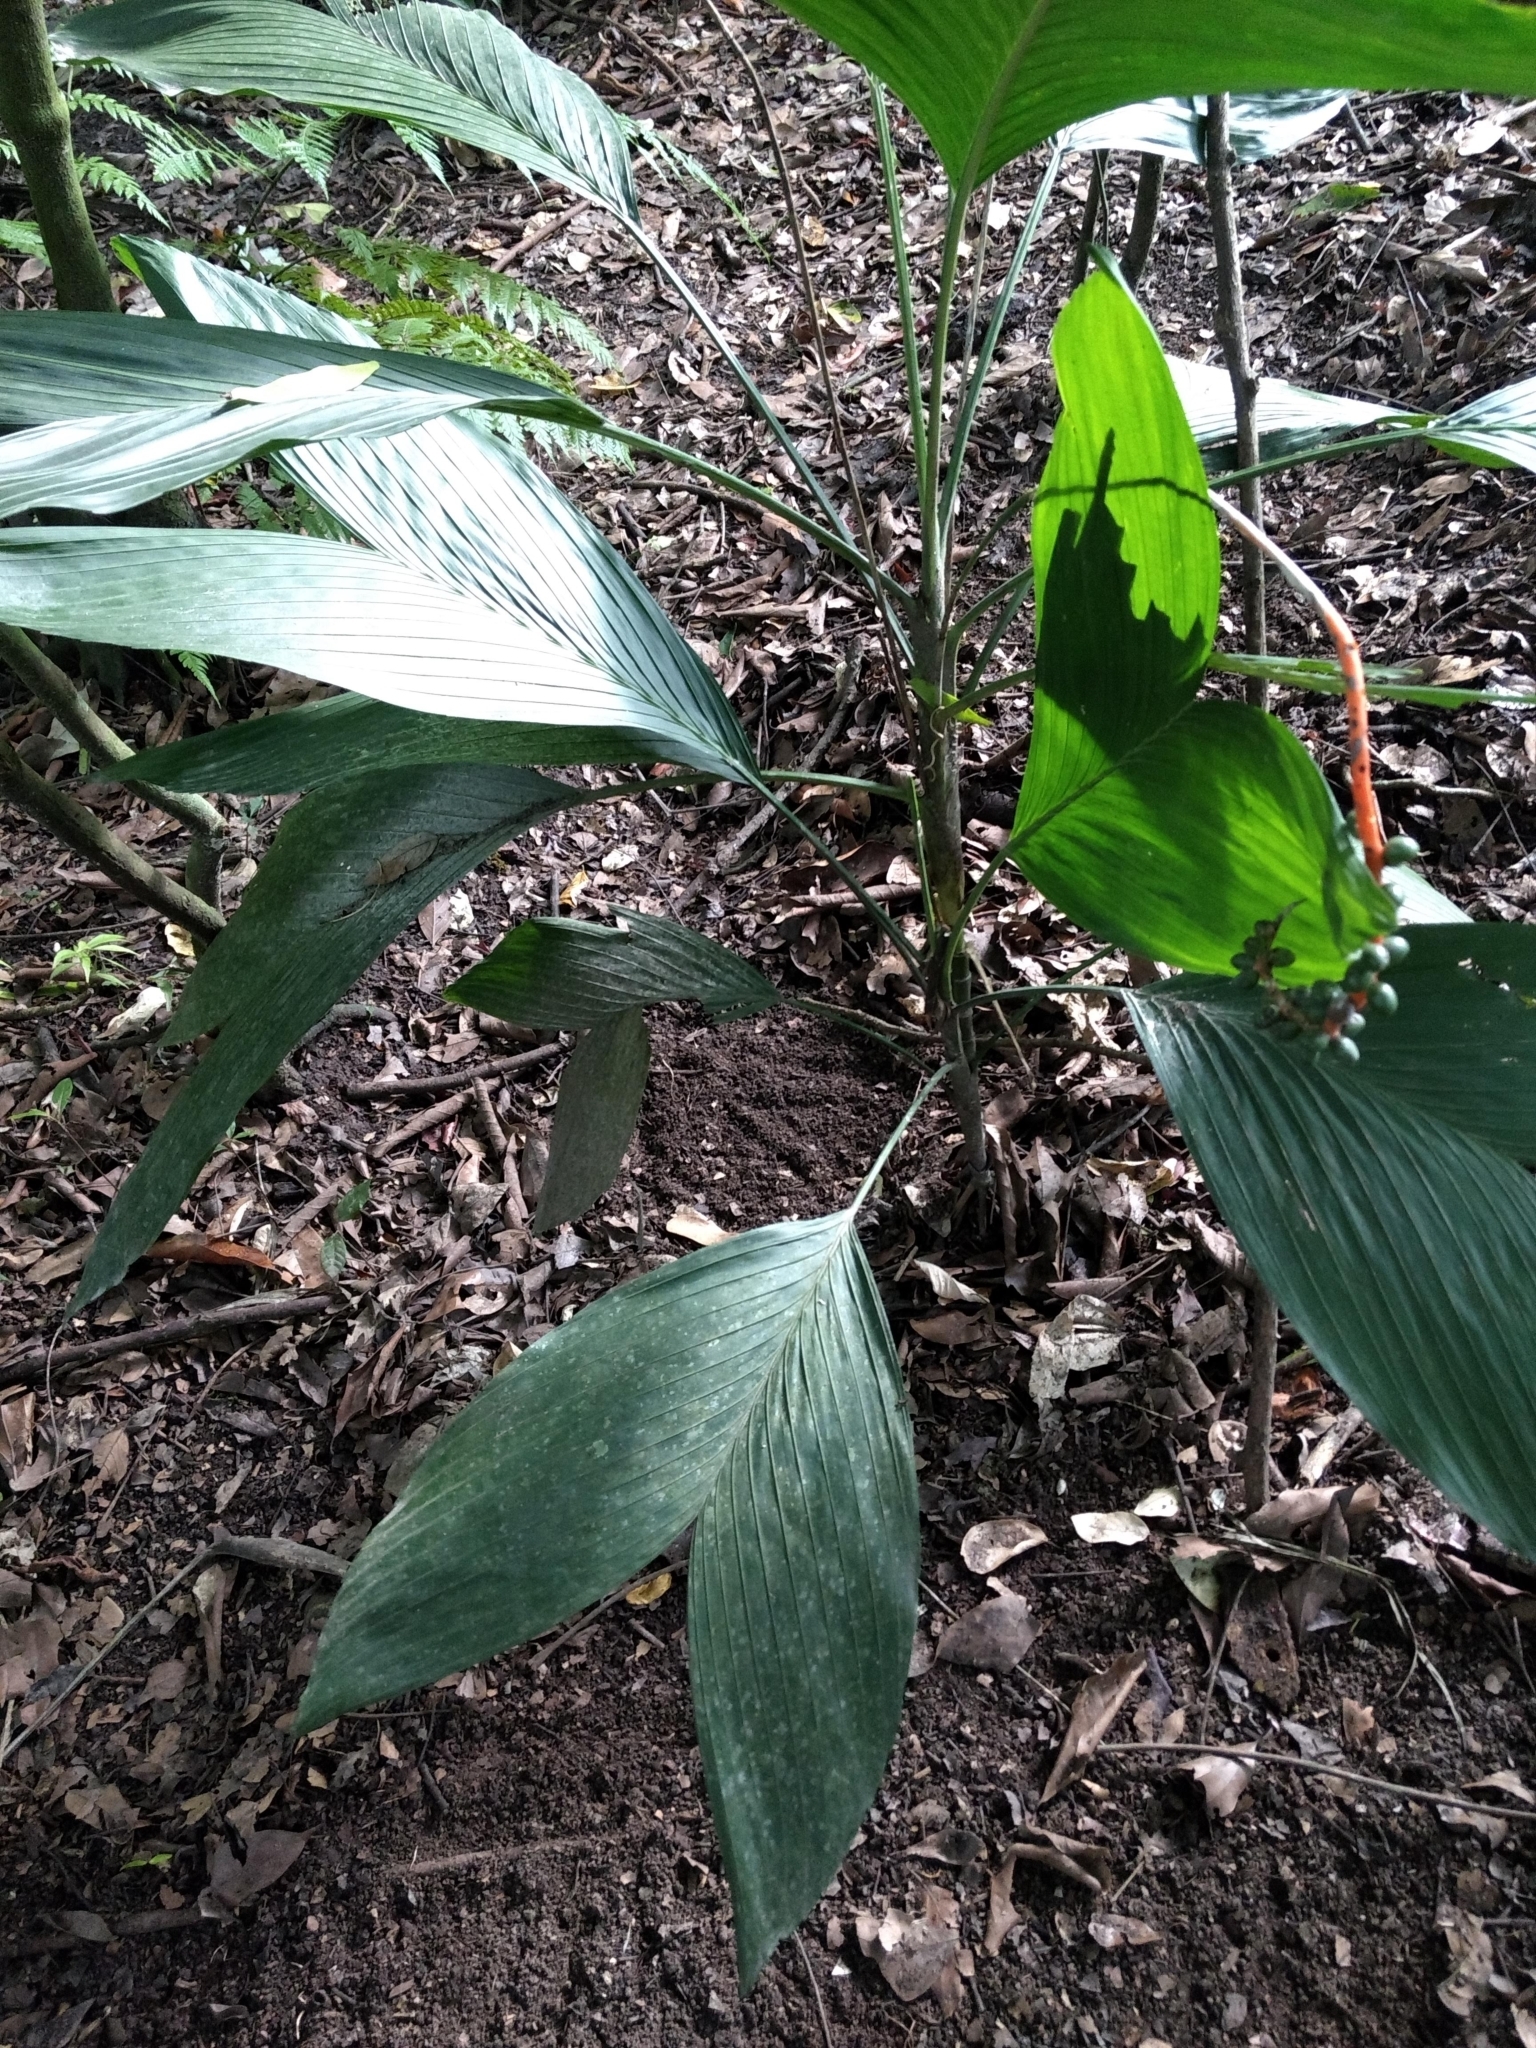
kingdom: Plantae
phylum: Tracheophyta
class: Liliopsida
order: Arecales
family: Arecaceae
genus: Chamaedorea
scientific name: Chamaedorea ernesti-augusti
